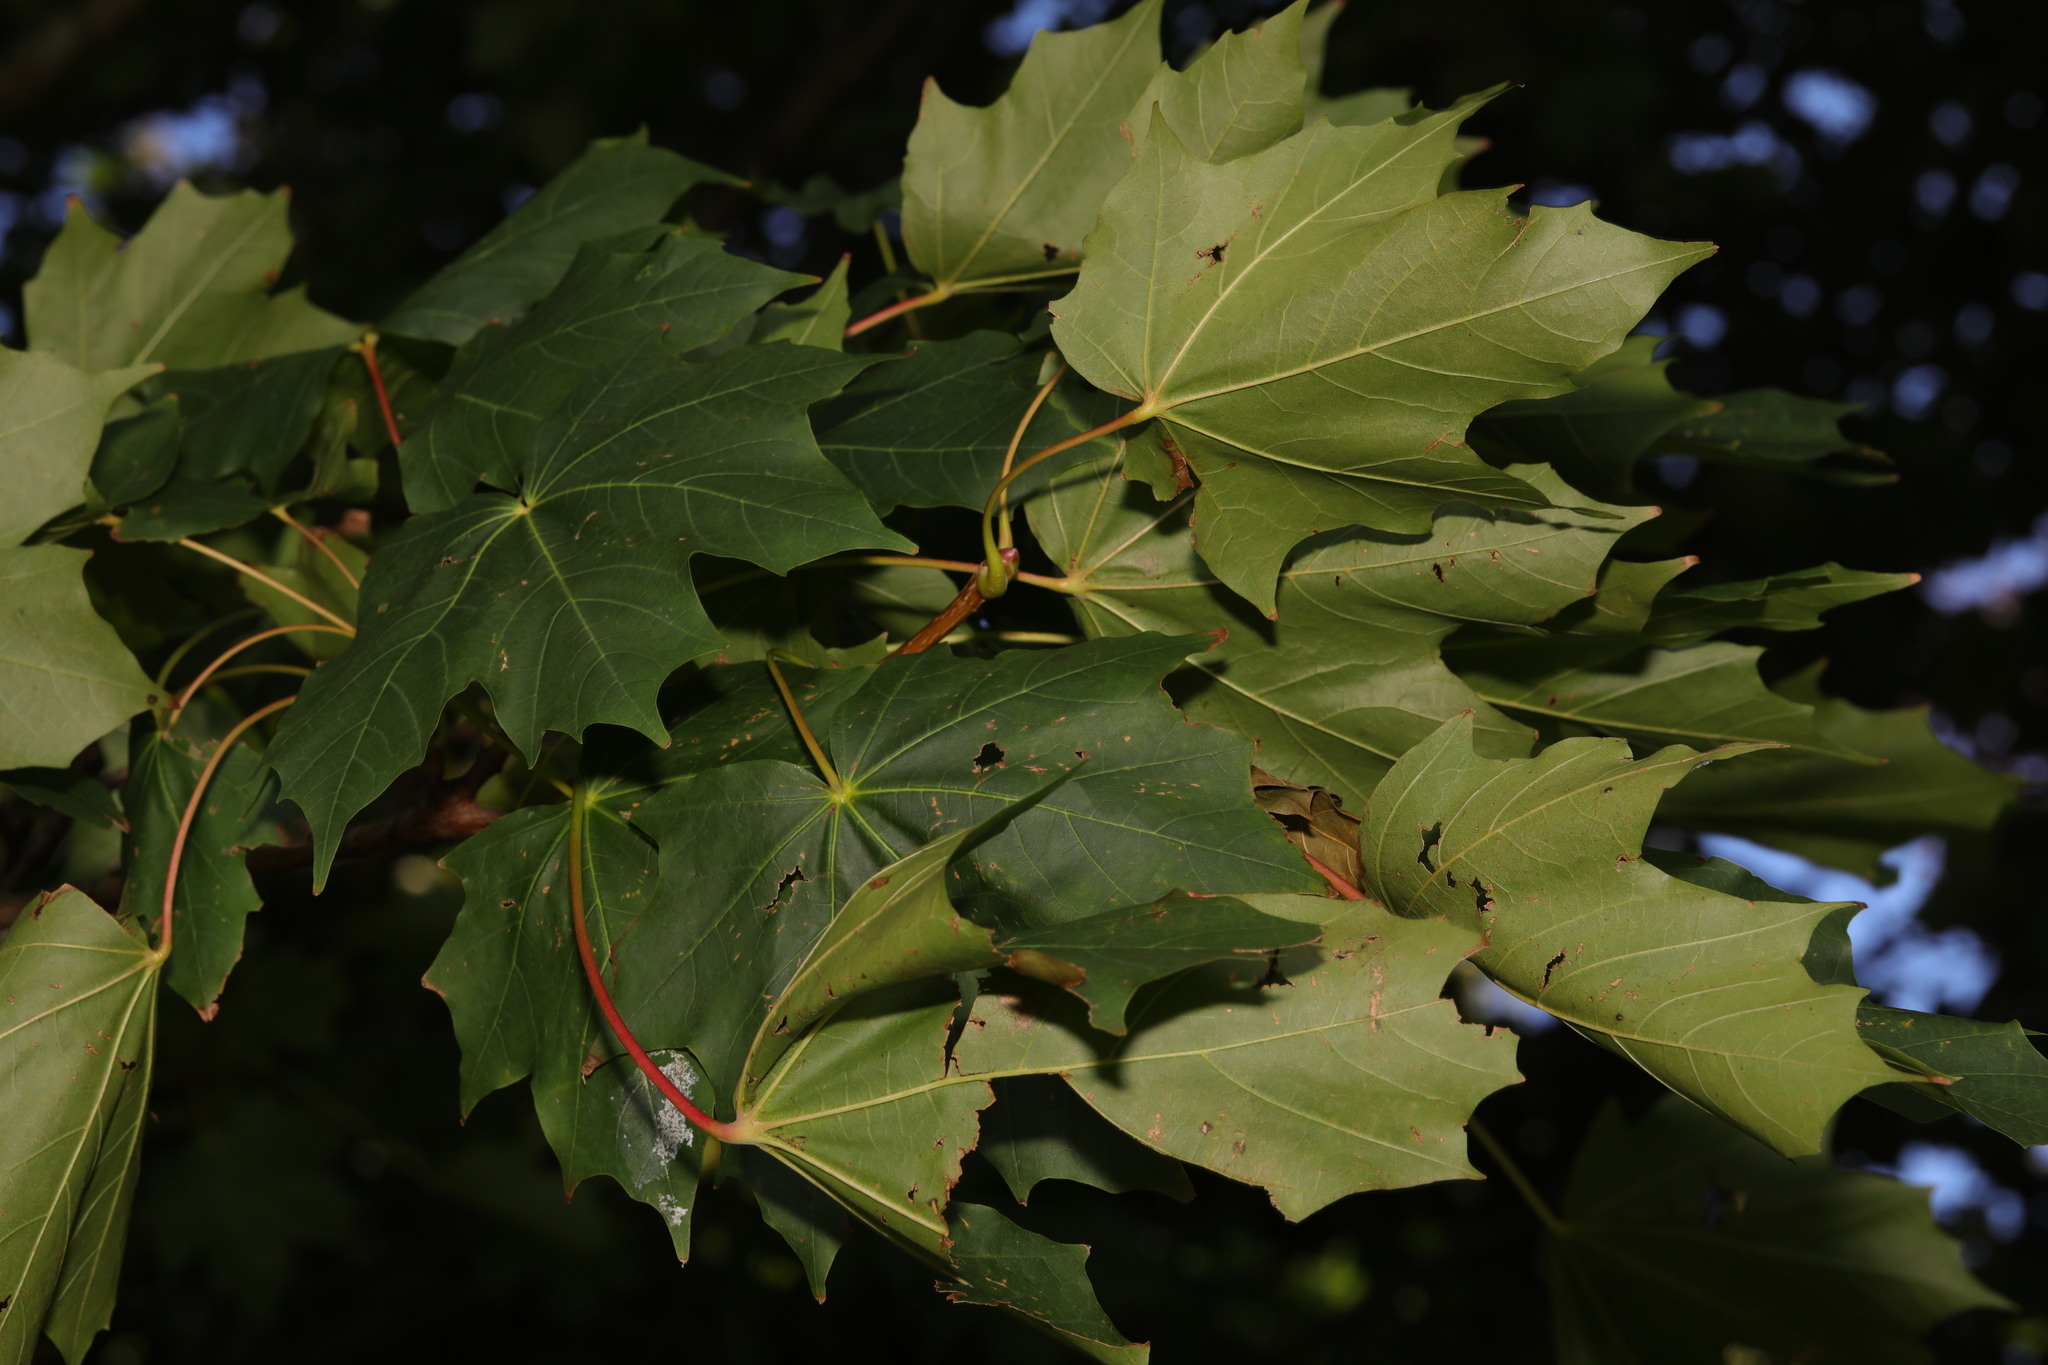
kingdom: Plantae
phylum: Tracheophyta
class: Magnoliopsida
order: Sapindales
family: Sapindaceae
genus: Acer
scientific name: Acer platanoides
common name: Norway maple
